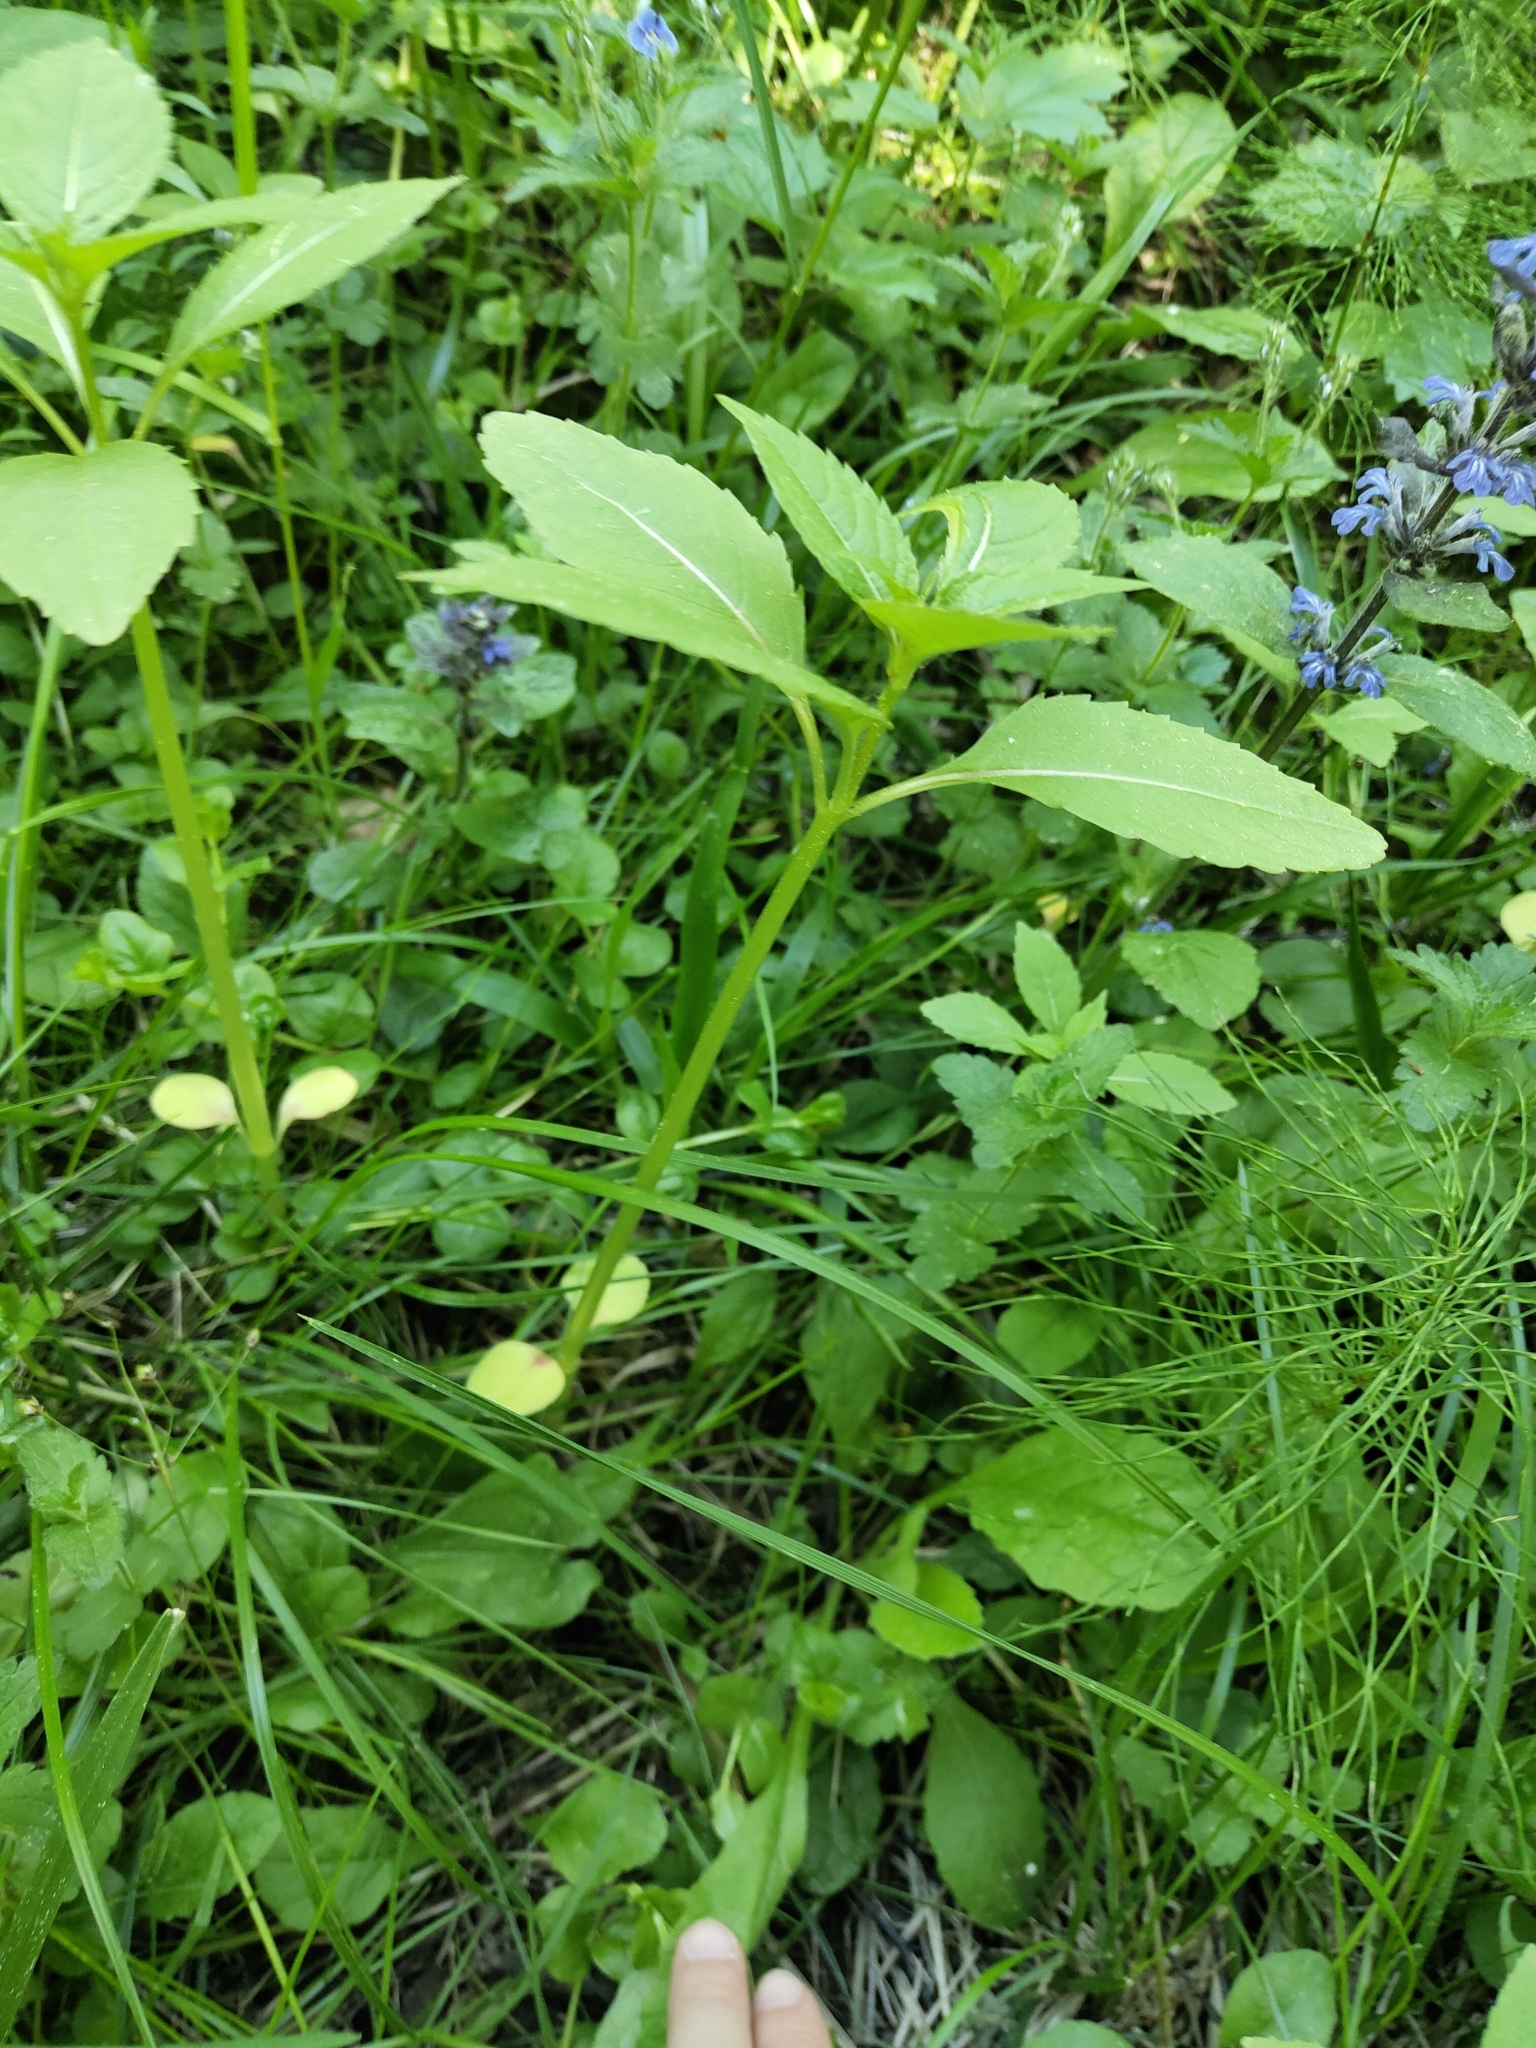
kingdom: Plantae
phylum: Tracheophyta
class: Magnoliopsida
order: Ericales
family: Balsaminaceae
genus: Impatiens
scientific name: Impatiens glandulifera
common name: Himalayan balsam
